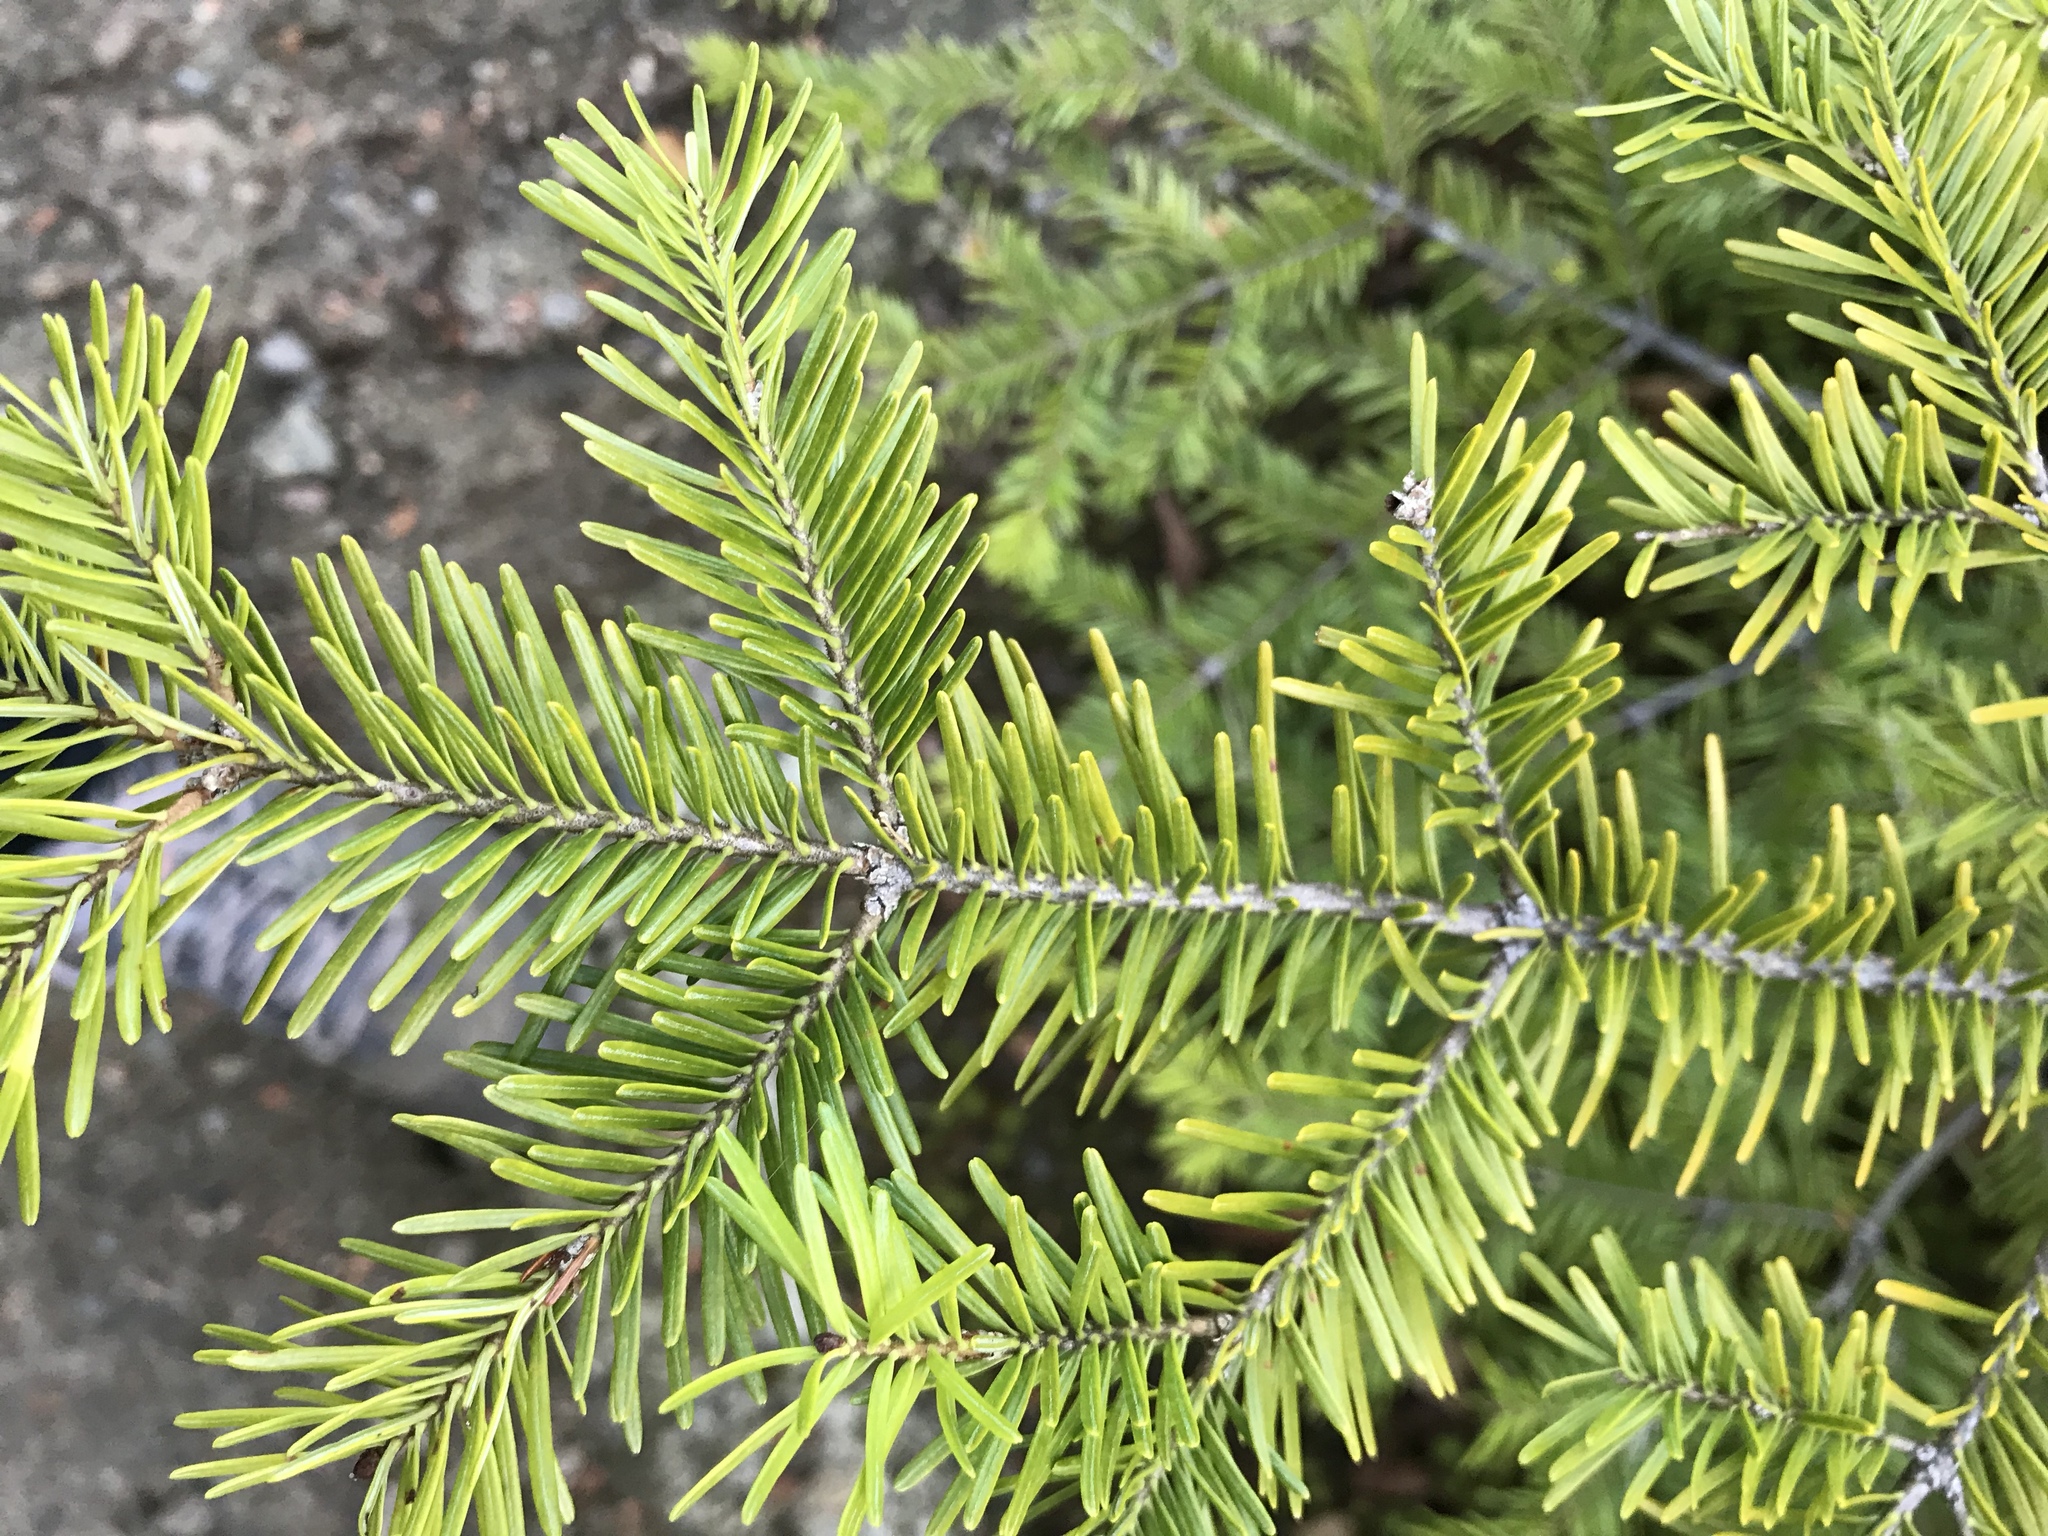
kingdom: Plantae
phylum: Tracheophyta
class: Pinopsida
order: Pinales
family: Pinaceae
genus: Abies
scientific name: Abies balsamea
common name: Balsam fir
